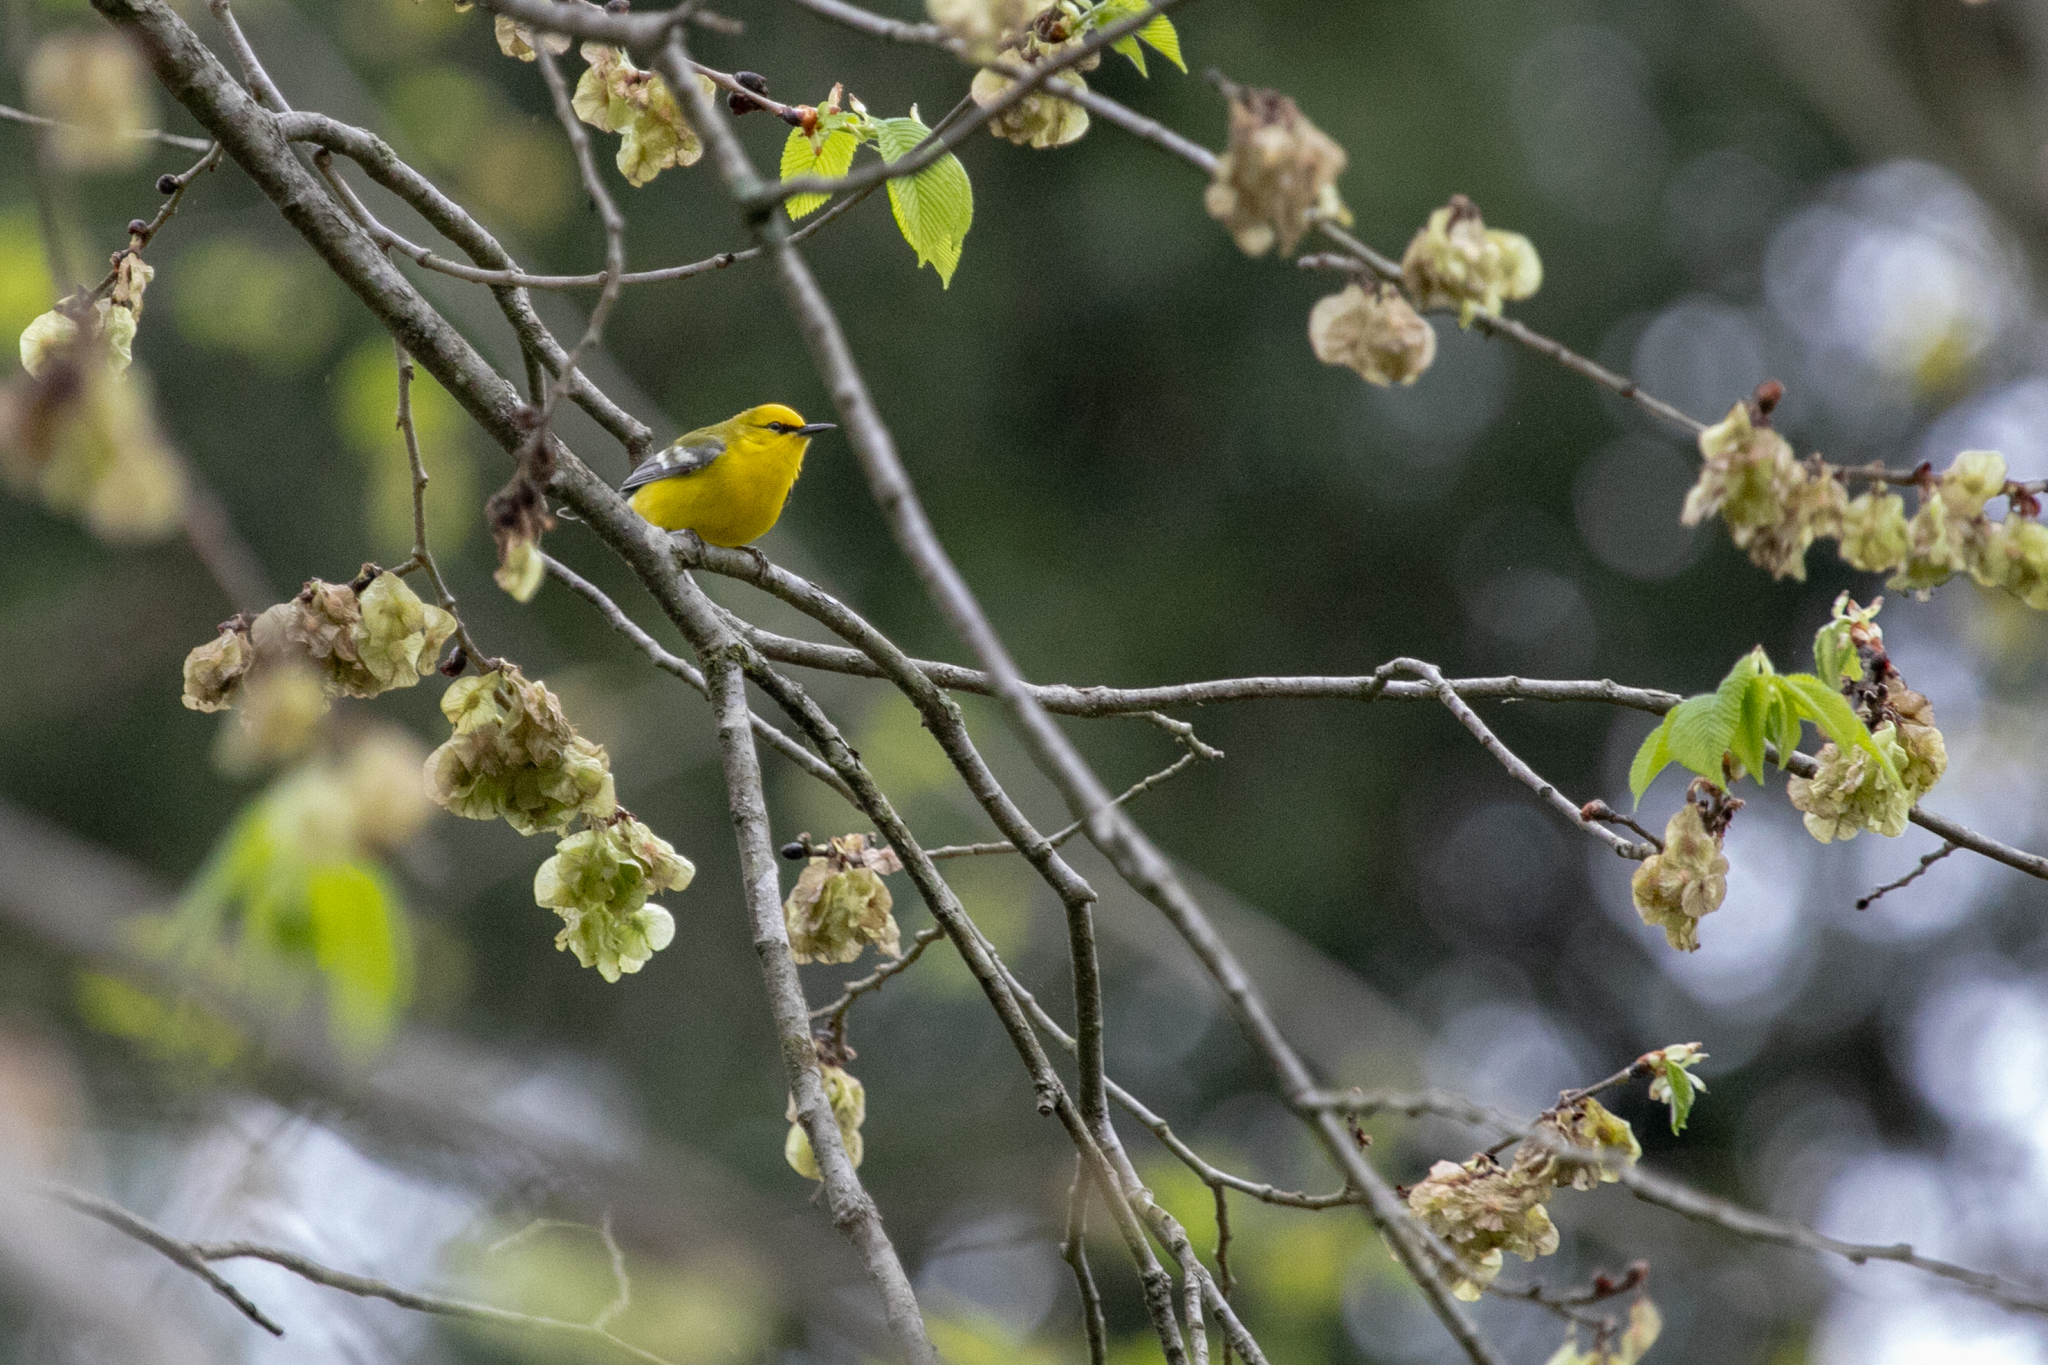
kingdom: Animalia
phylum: Chordata
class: Aves
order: Passeriformes
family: Parulidae
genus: Vermivora
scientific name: Vermivora cyanoptera
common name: Blue-winged warbler
